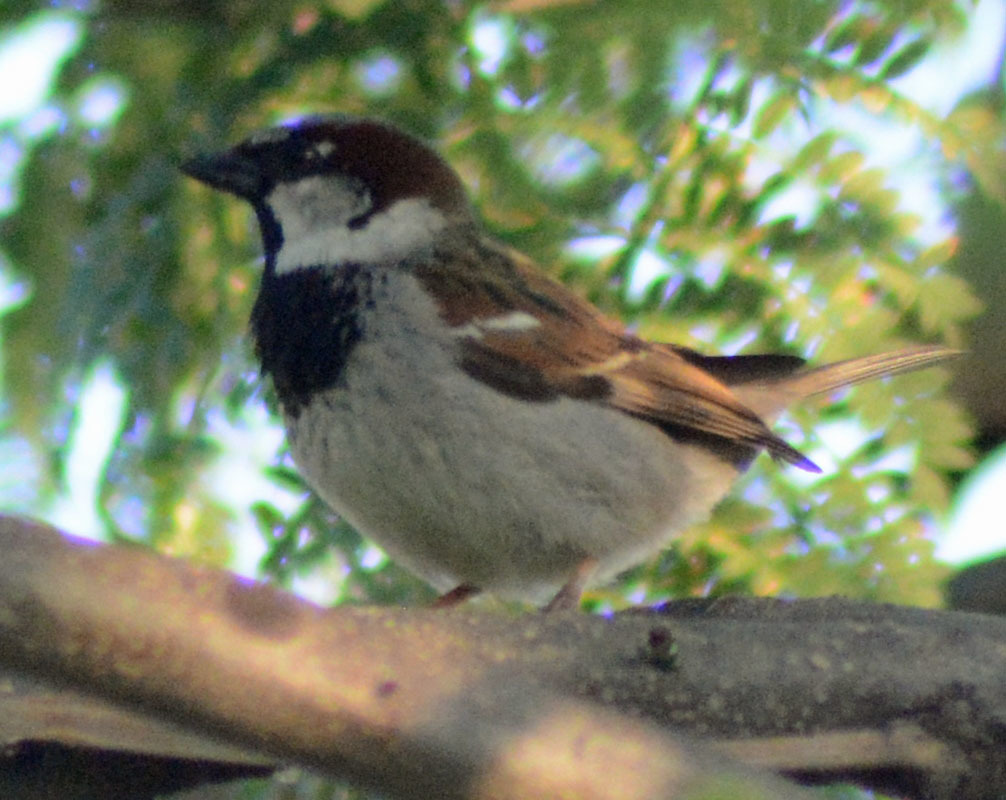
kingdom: Animalia
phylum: Chordata
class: Aves
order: Passeriformes
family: Passeridae
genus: Passer
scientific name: Passer domesticus
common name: House sparrow
